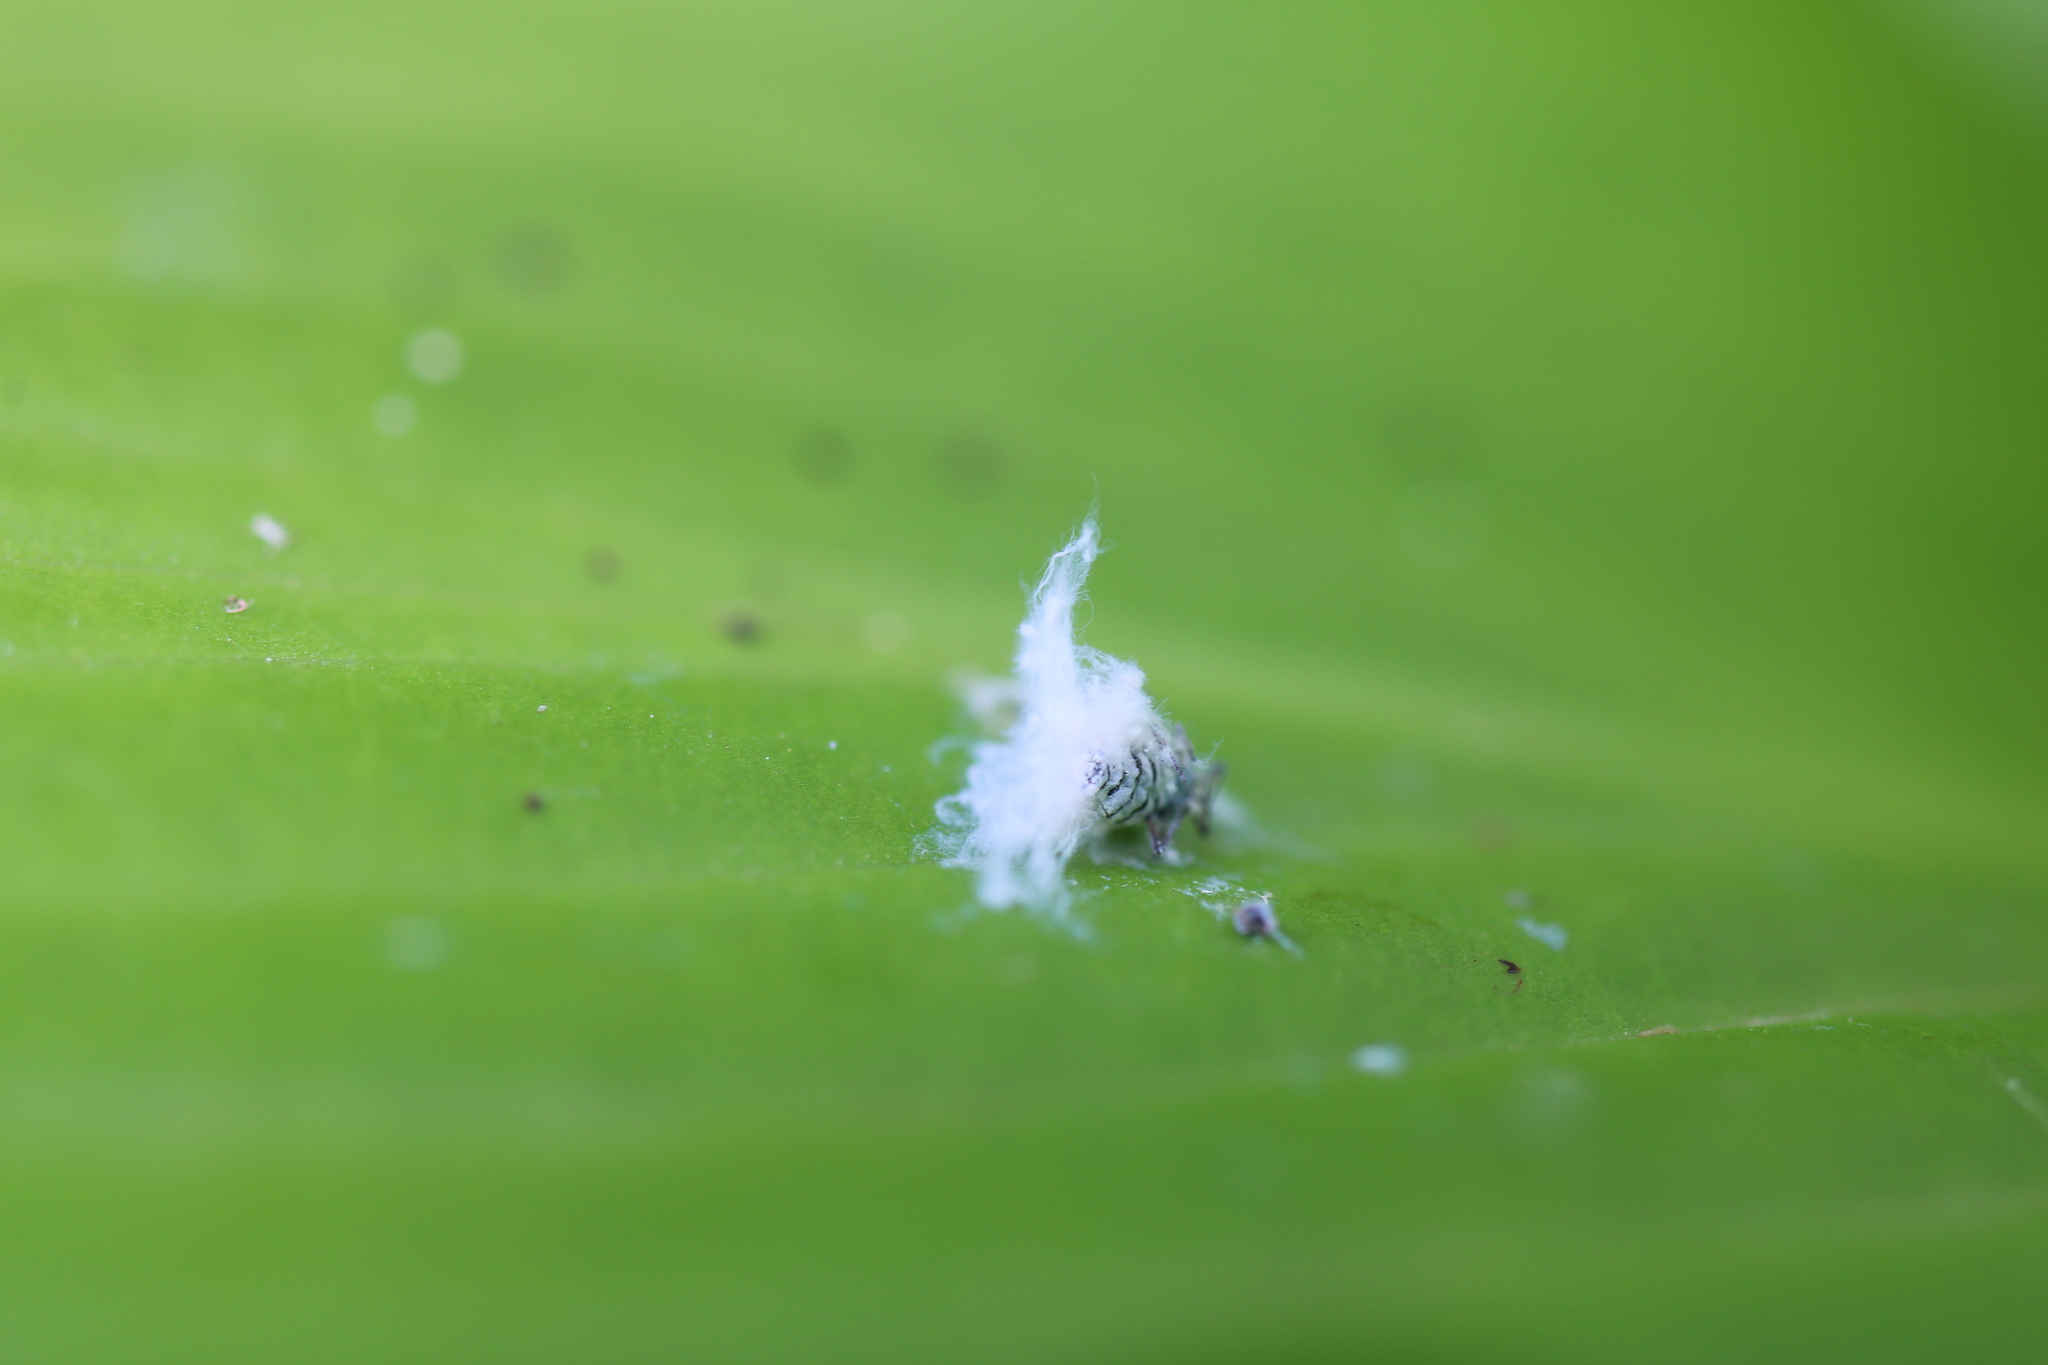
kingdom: Animalia
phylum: Arthropoda
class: Insecta
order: Hemiptera
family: Aphididae
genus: Prociphilus
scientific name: Prociphilus tessellatus
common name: Woolly alder aphid
